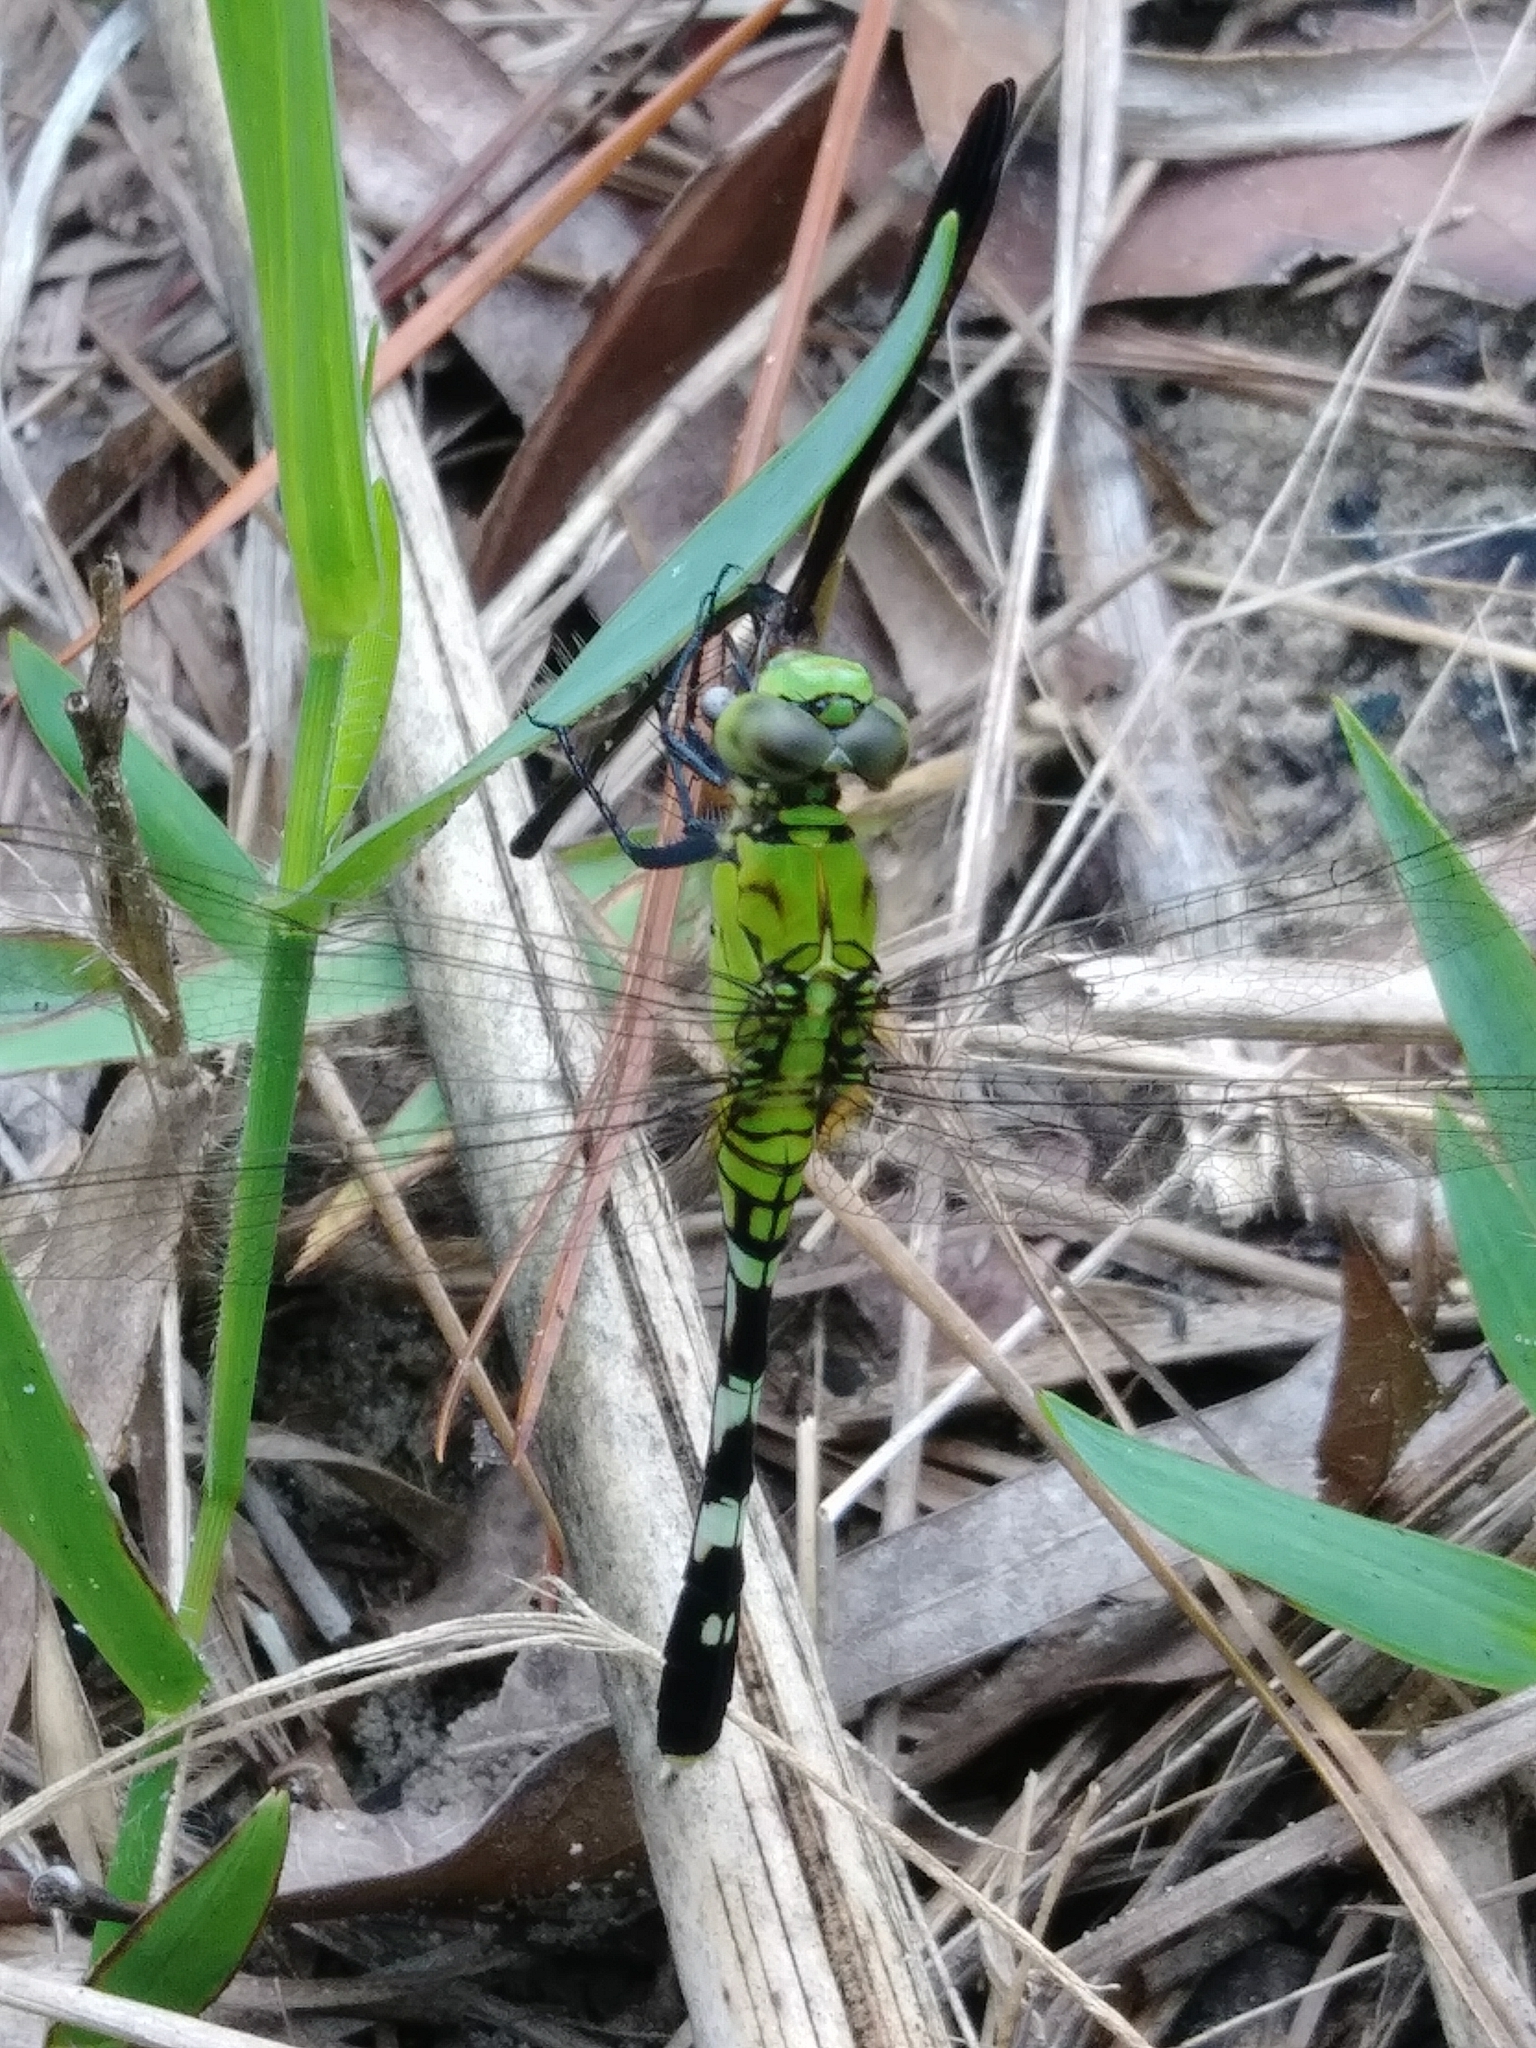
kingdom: Animalia
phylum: Arthropoda
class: Insecta
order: Odonata
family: Libellulidae
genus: Erythemis
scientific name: Erythemis simplicicollis
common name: Eastern pondhawk
